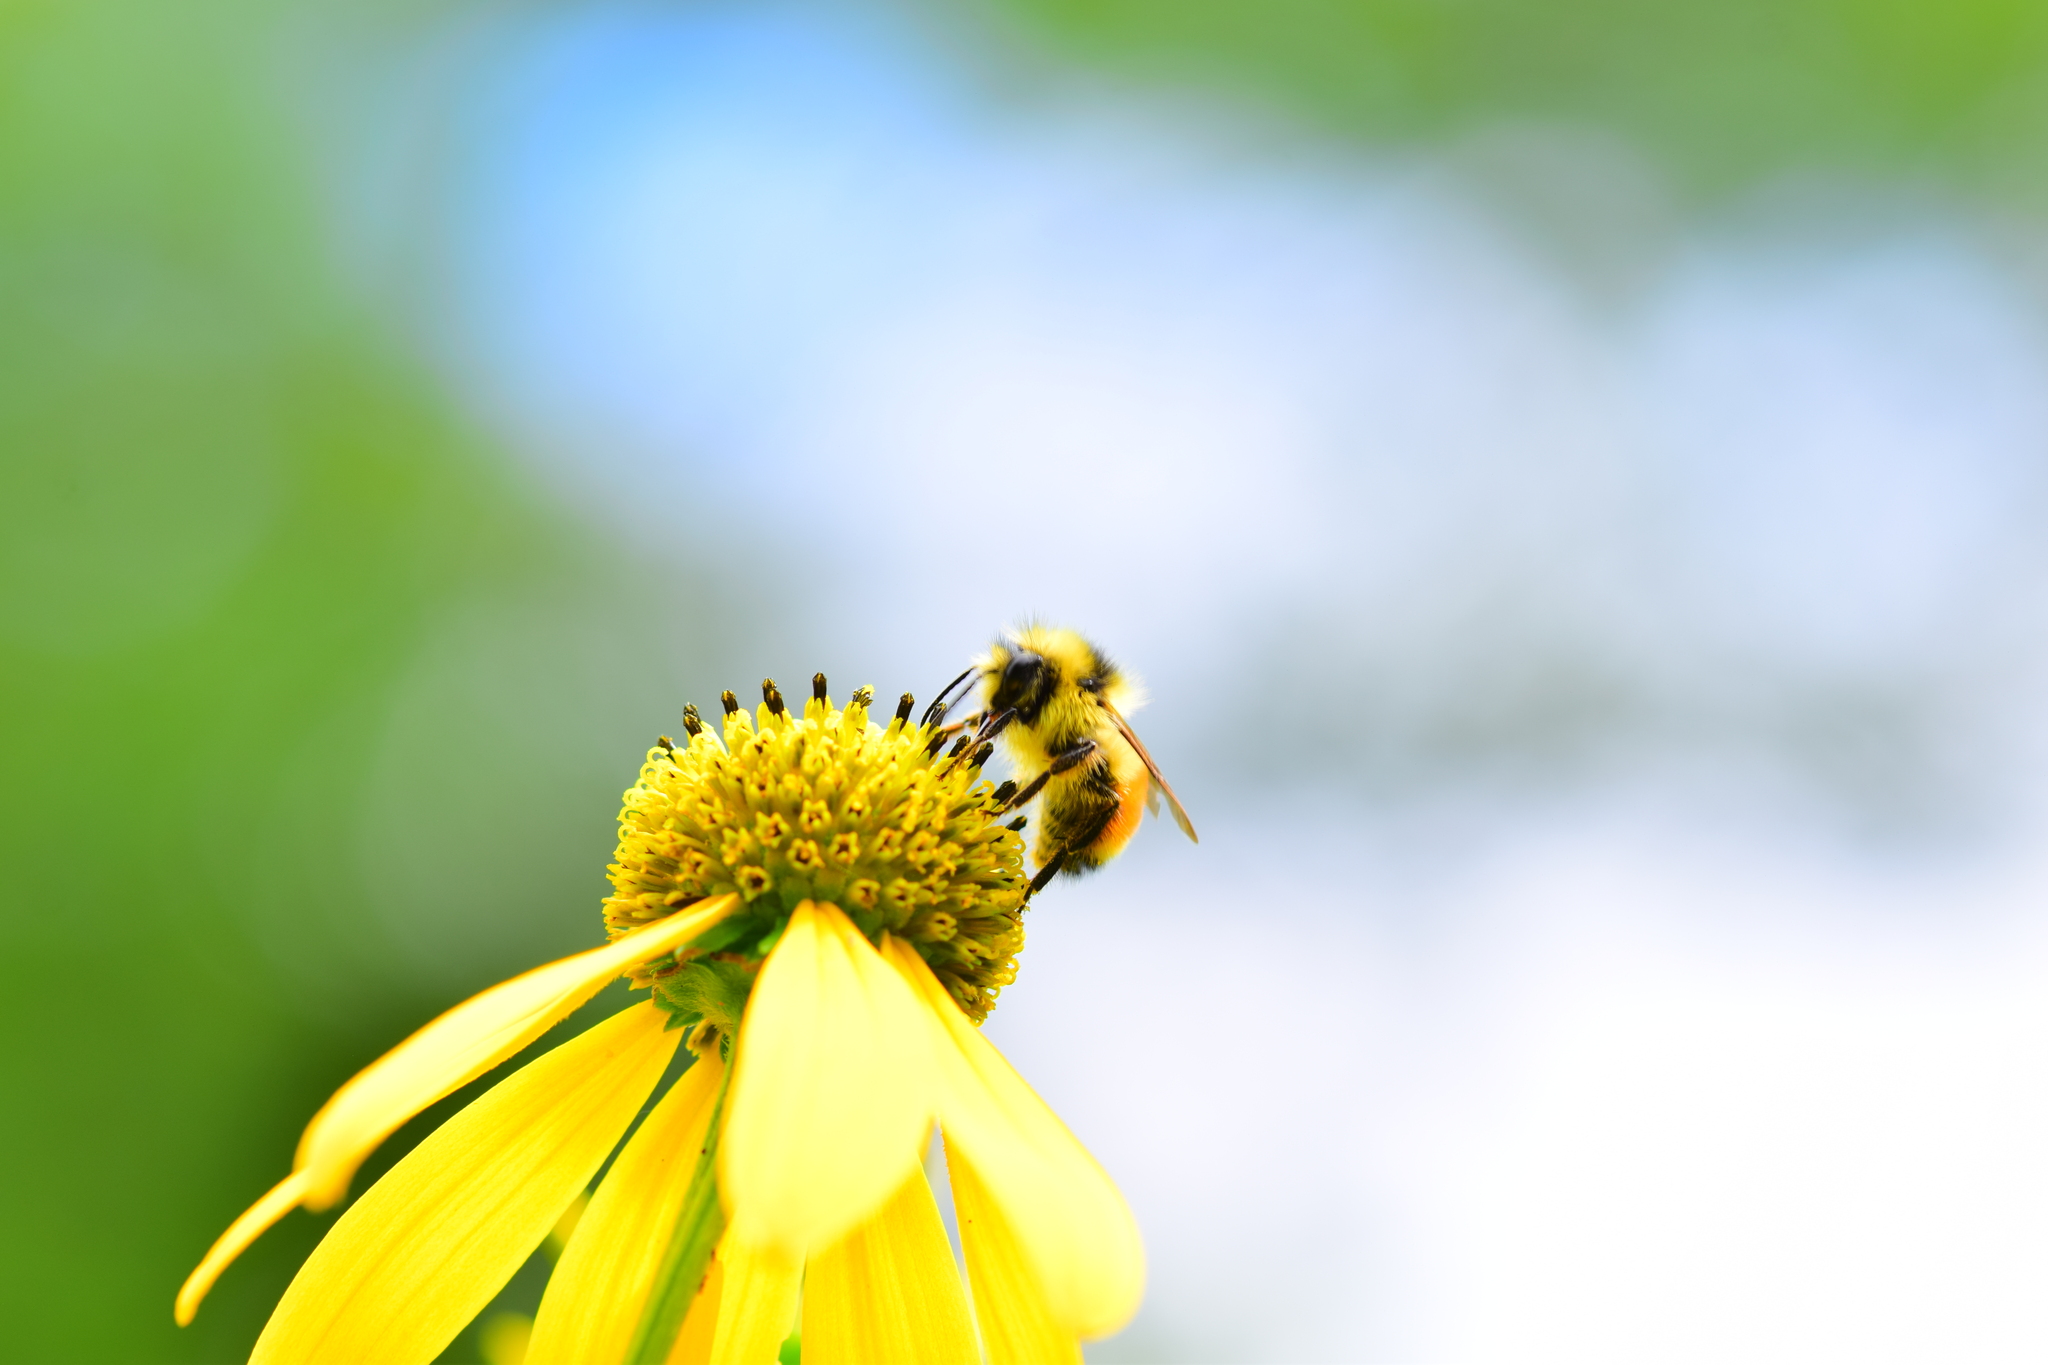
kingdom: Animalia
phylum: Arthropoda
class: Insecta
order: Hymenoptera
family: Apidae
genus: Bombus
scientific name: Bombus ternarius
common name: Tri-colored bumble bee
